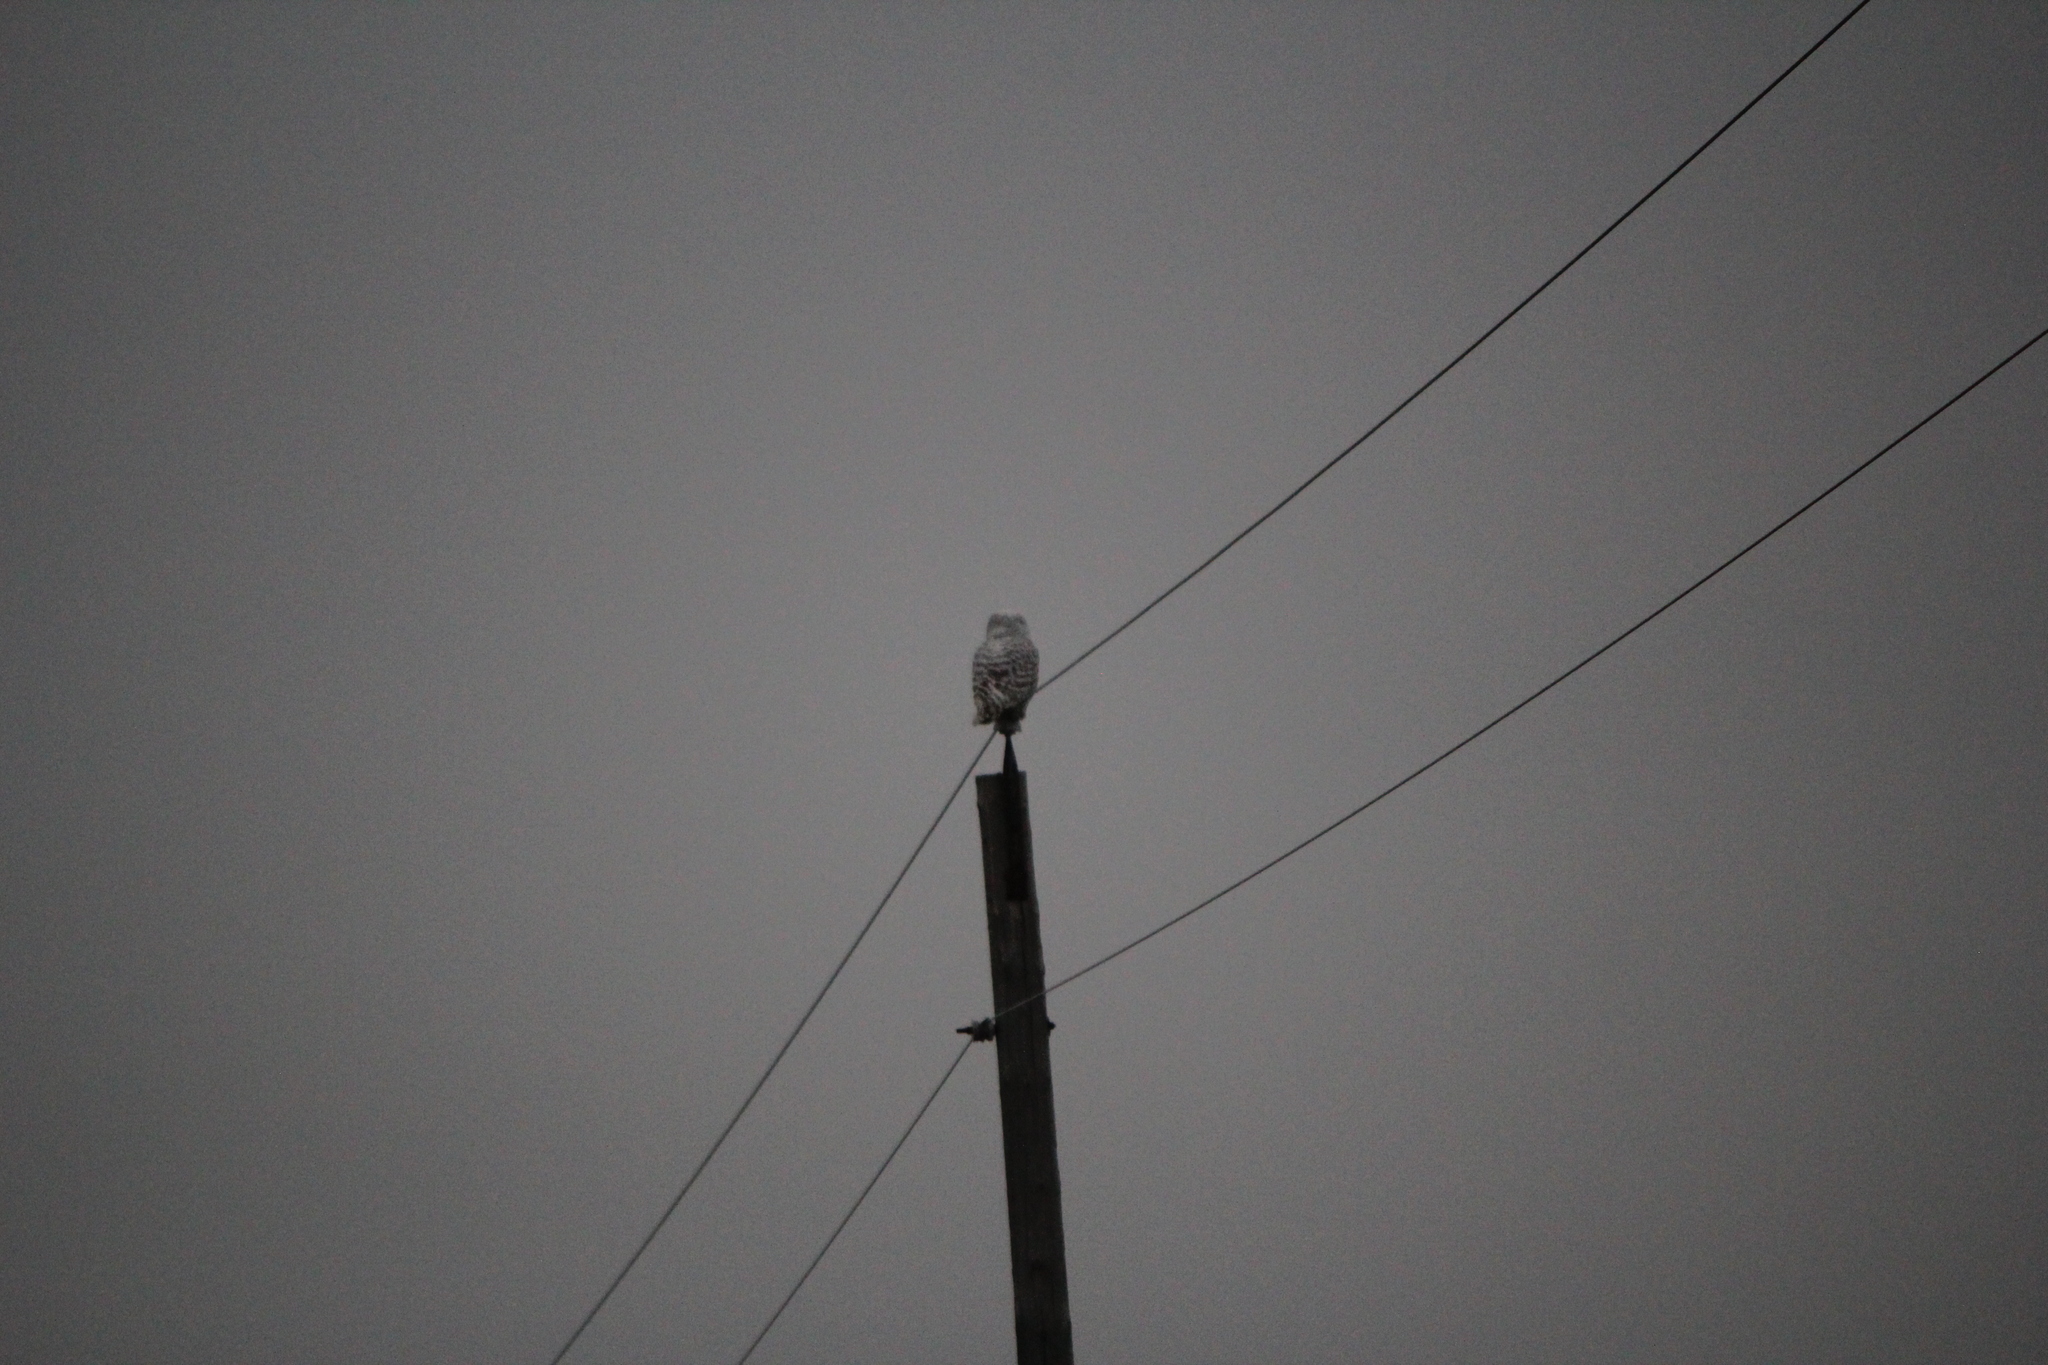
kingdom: Animalia
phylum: Chordata
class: Aves
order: Strigiformes
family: Strigidae
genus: Bubo
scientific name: Bubo scandiacus
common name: Snowy owl
